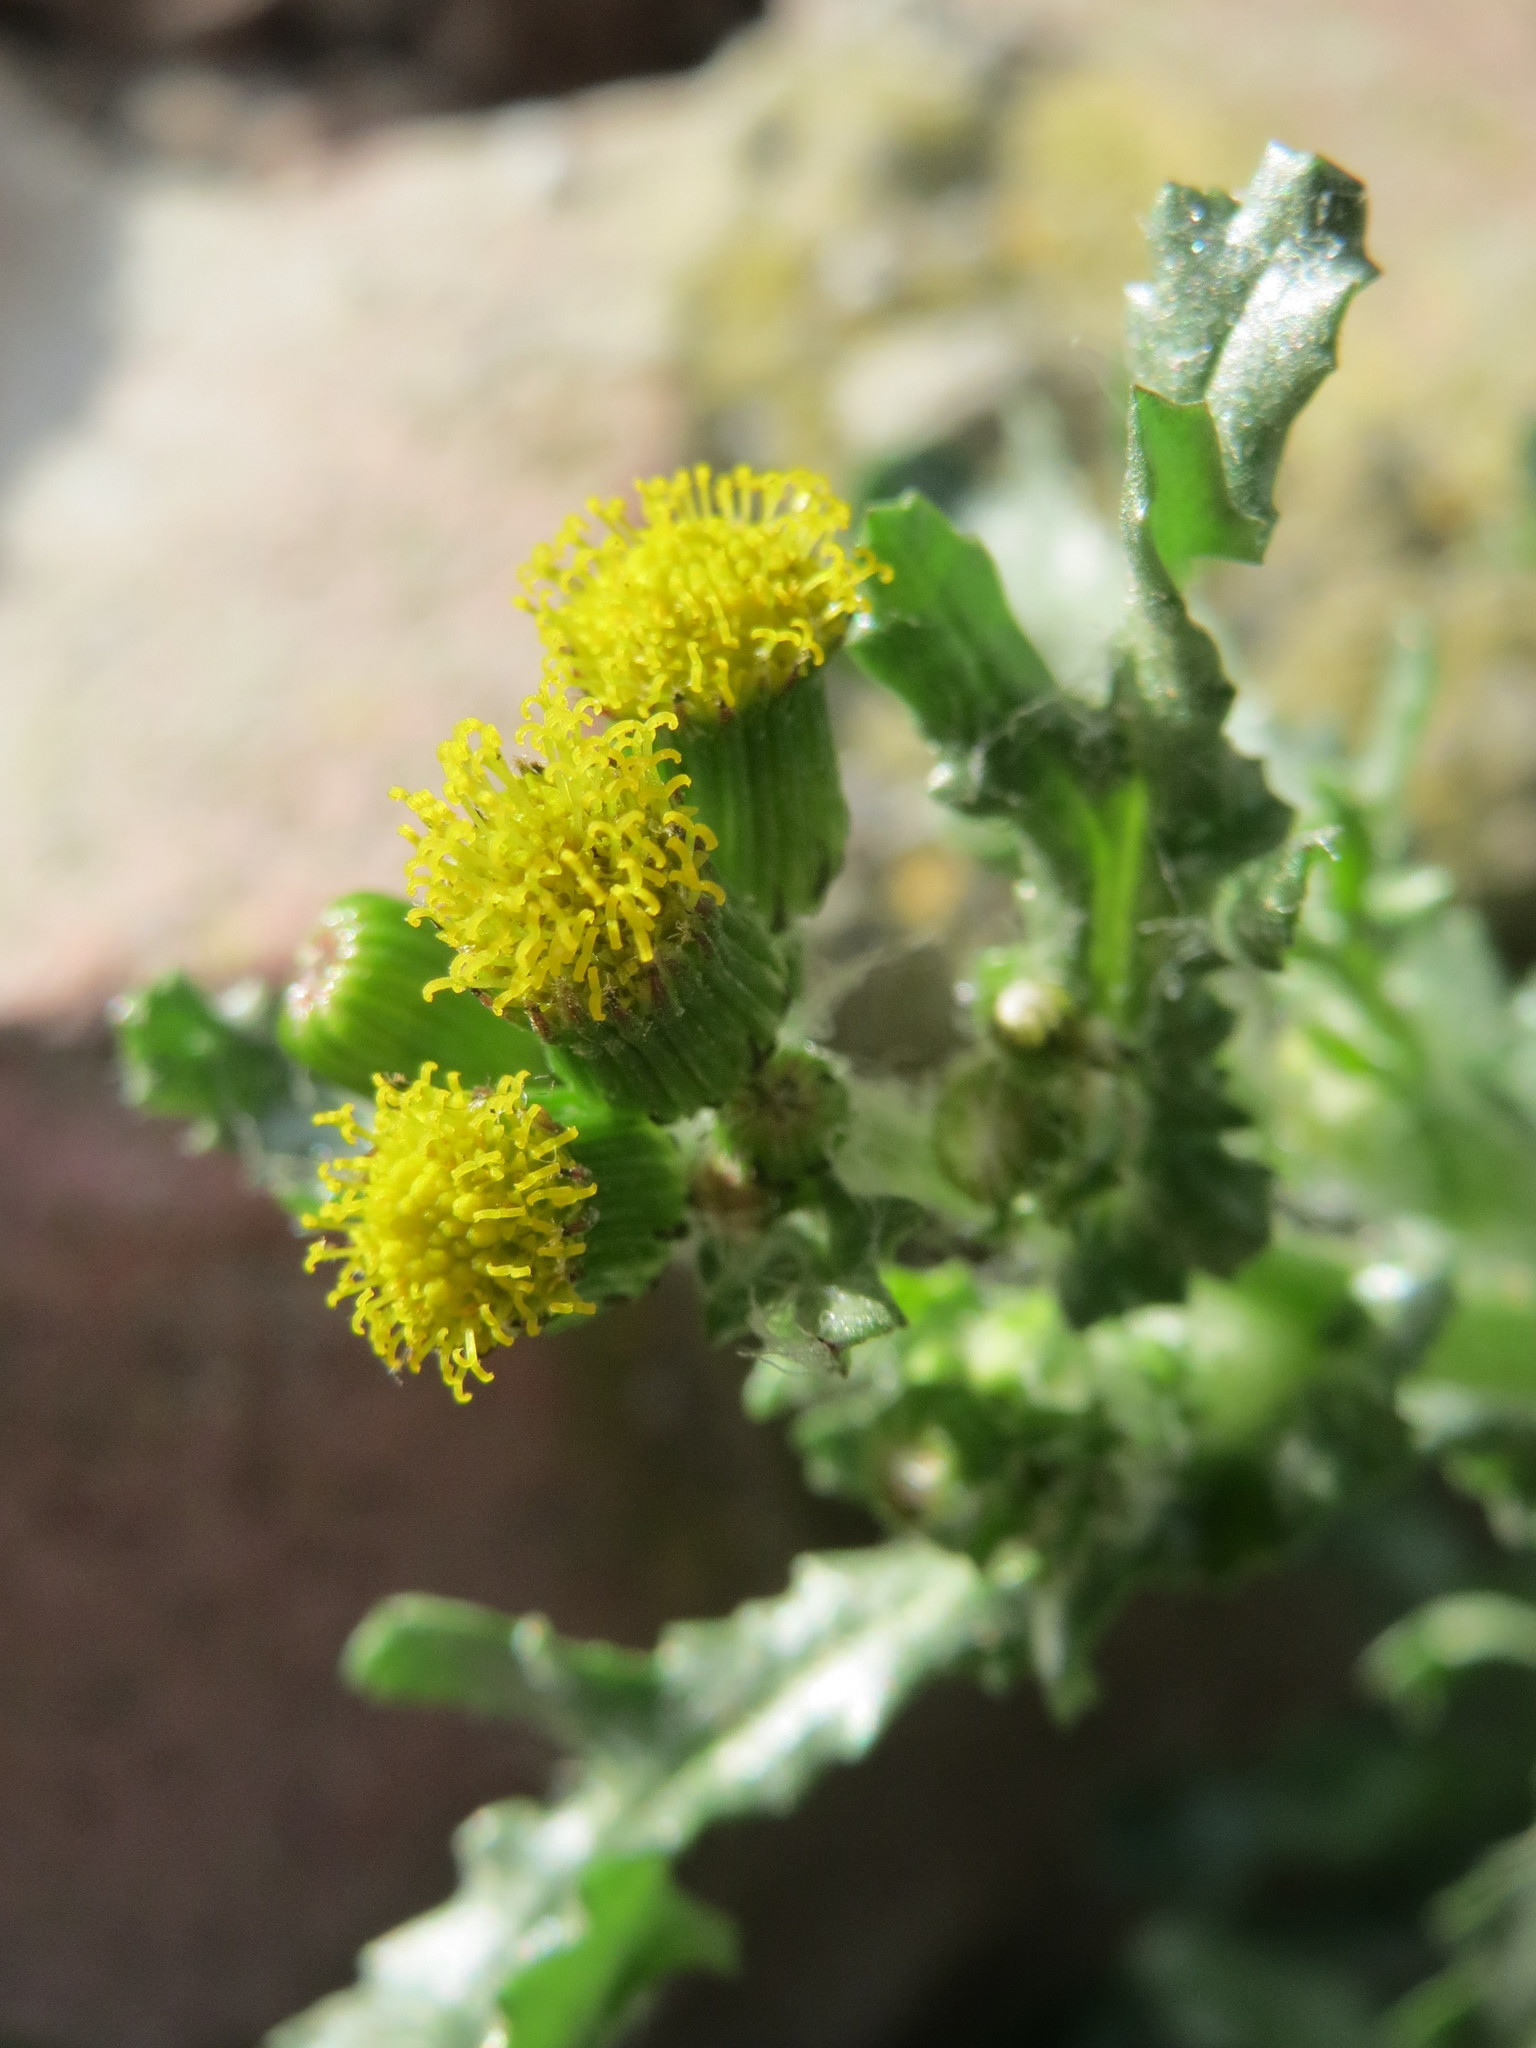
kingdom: Plantae
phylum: Tracheophyta
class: Magnoliopsida
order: Asterales
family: Asteraceae
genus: Senecio
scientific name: Senecio vulgaris
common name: Old-man-in-the-spring
